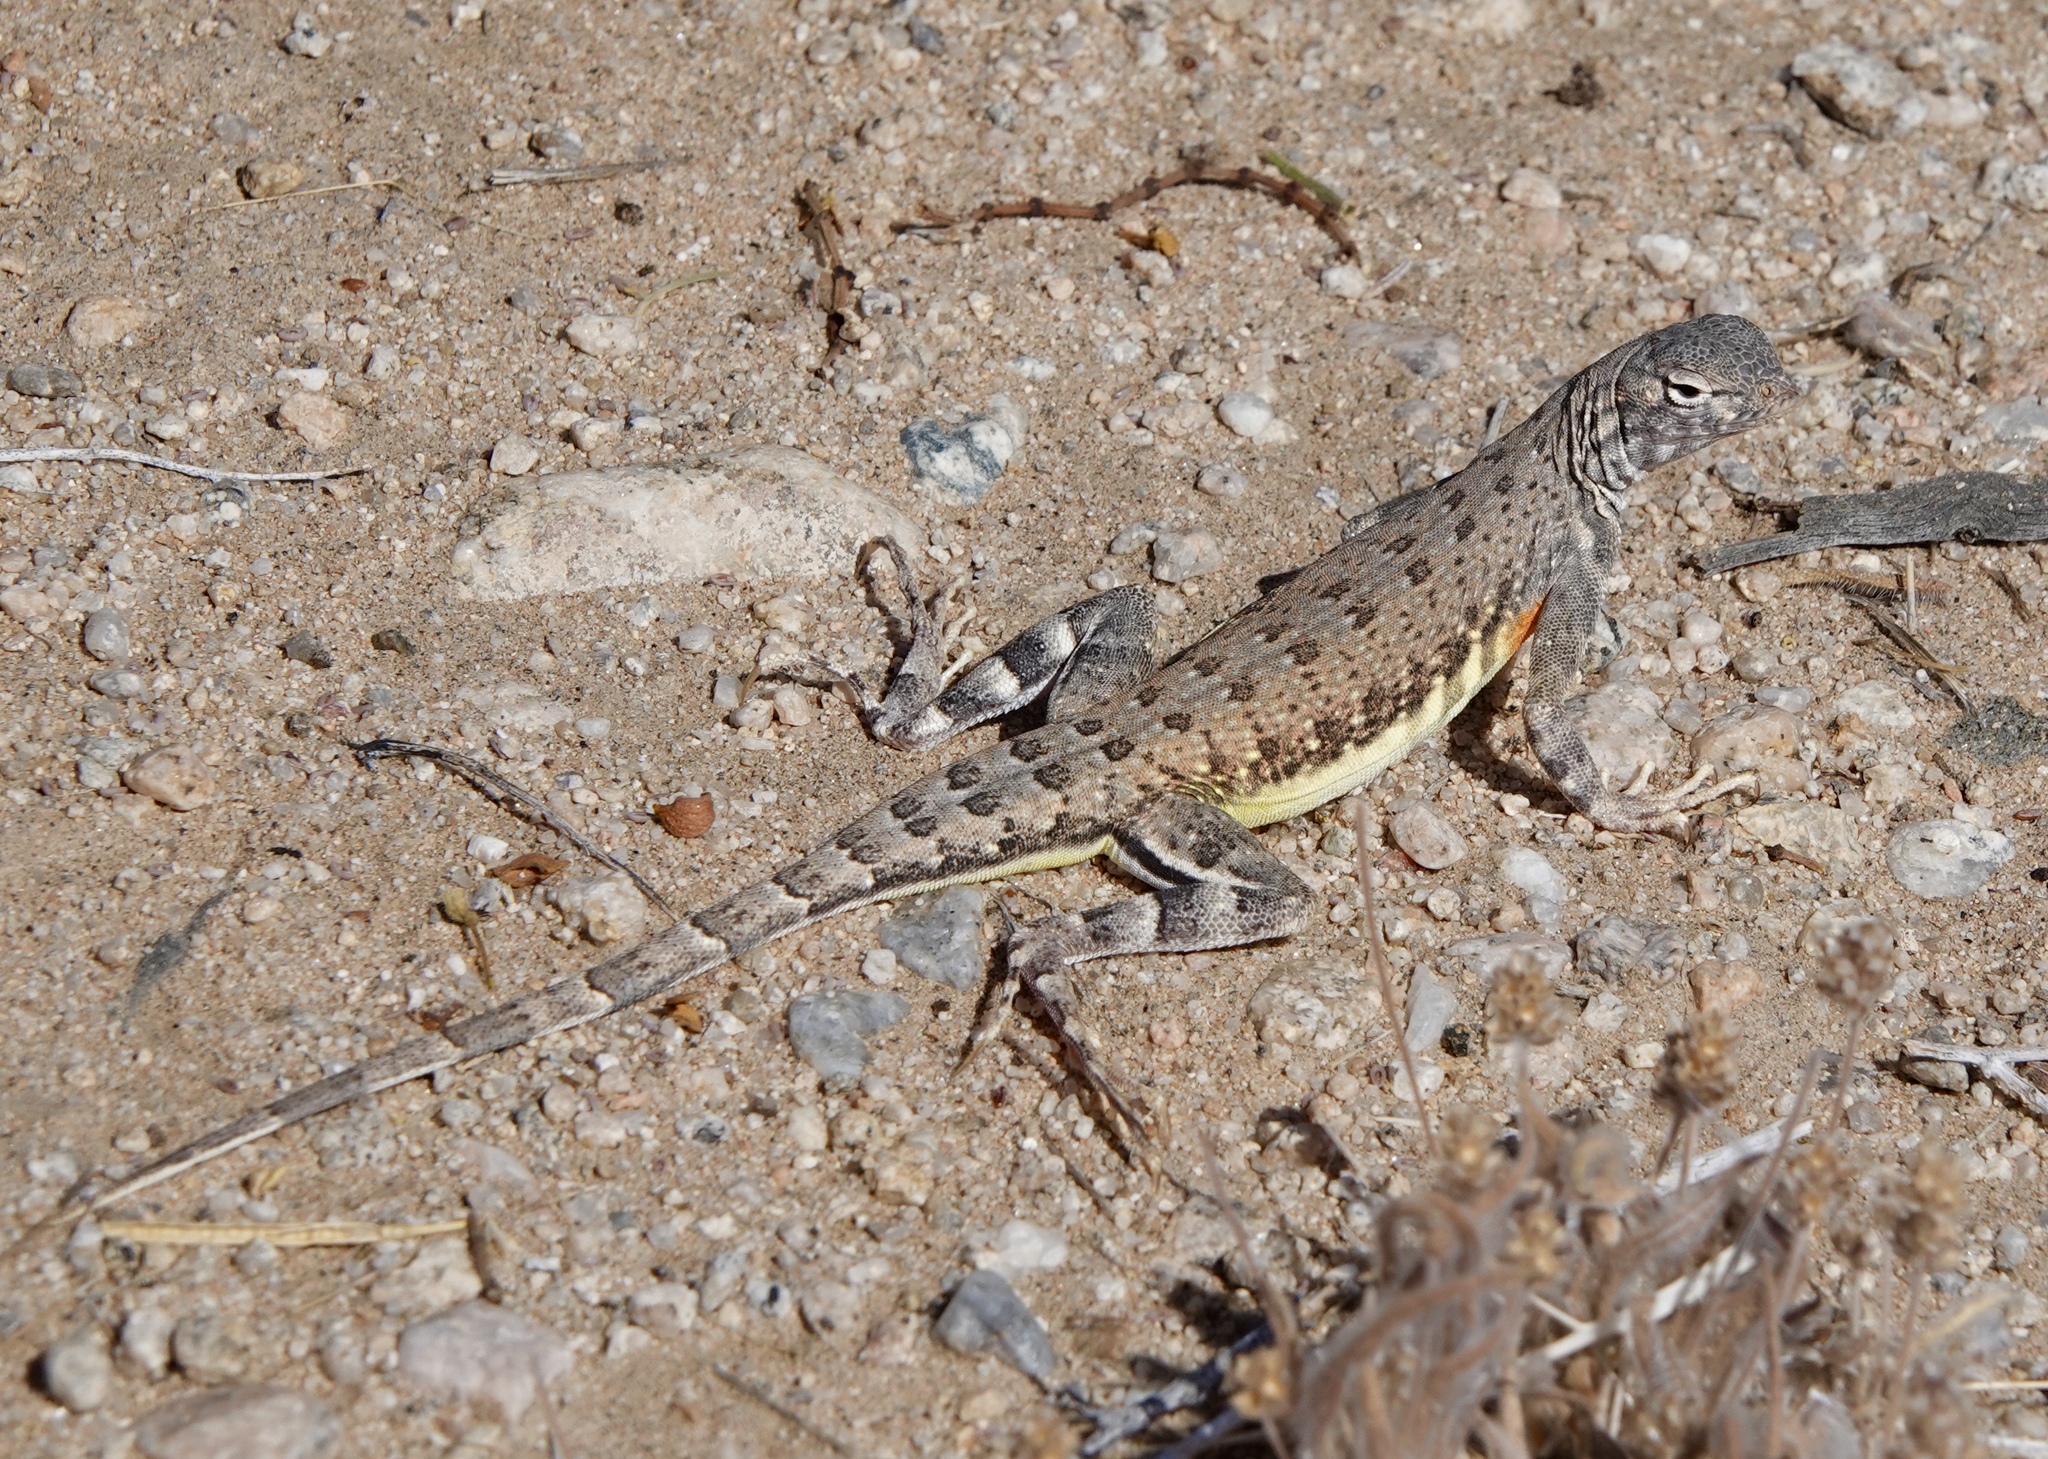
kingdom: Animalia
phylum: Chordata
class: Squamata
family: Phrynosomatidae
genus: Callisaurus
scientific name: Callisaurus draconoides
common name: Zebra-tailed lizard
